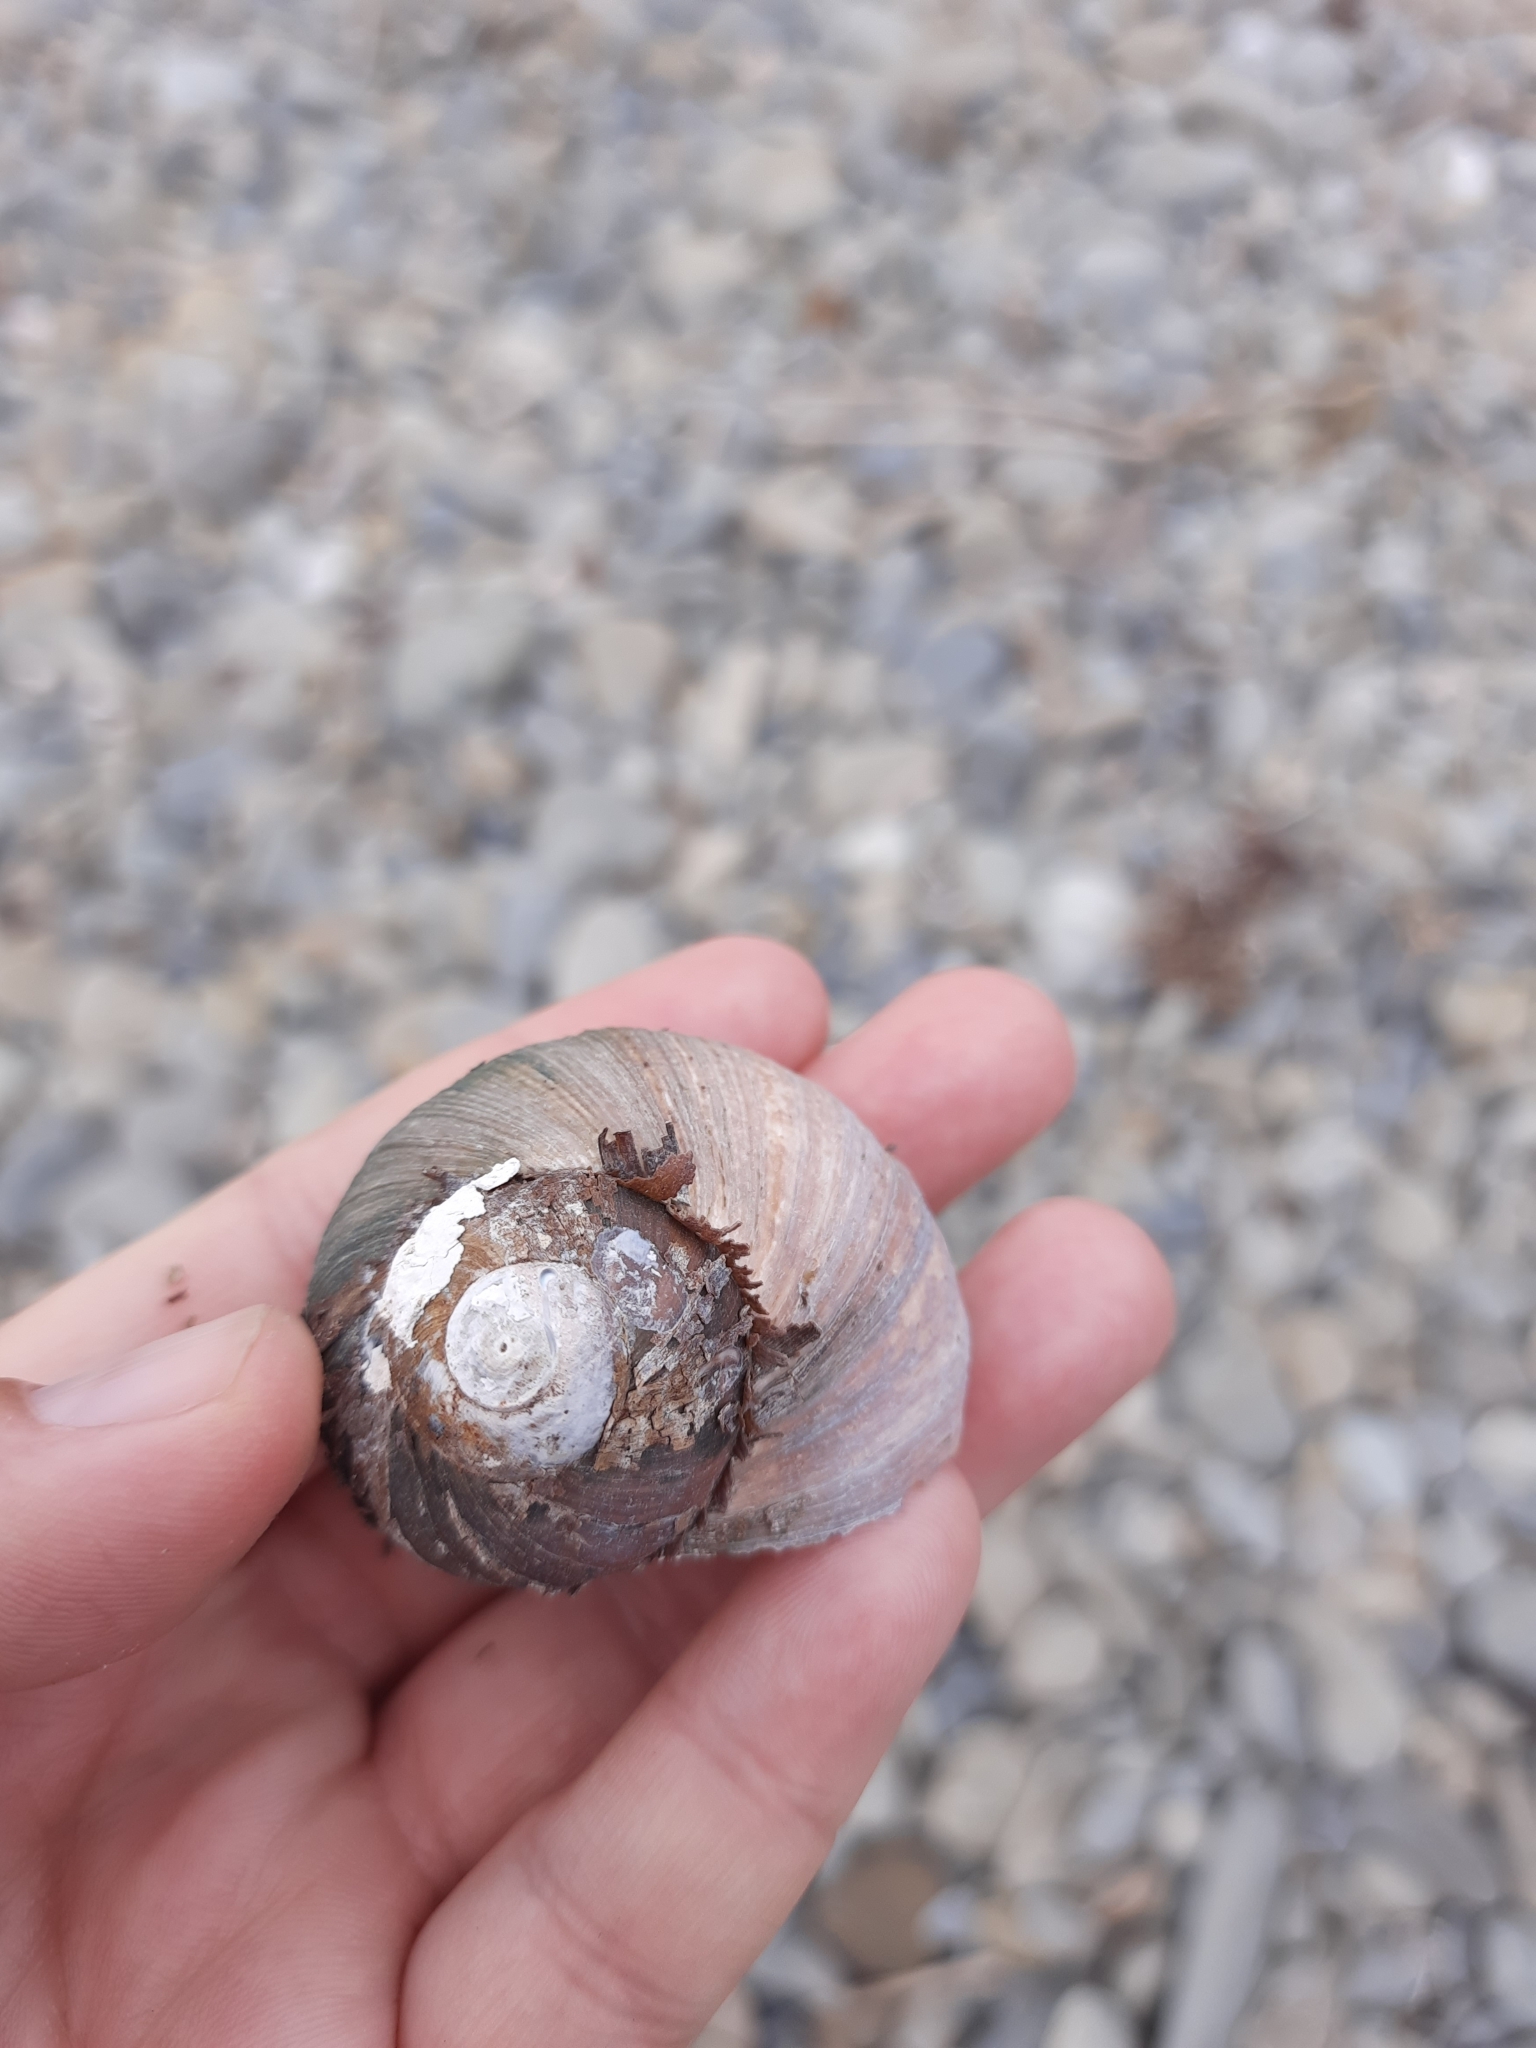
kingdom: Animalia
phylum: Mollusca
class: Gastropoda
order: Trochida
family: Turbinidae
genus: Lunella
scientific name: Lunella smaragda
